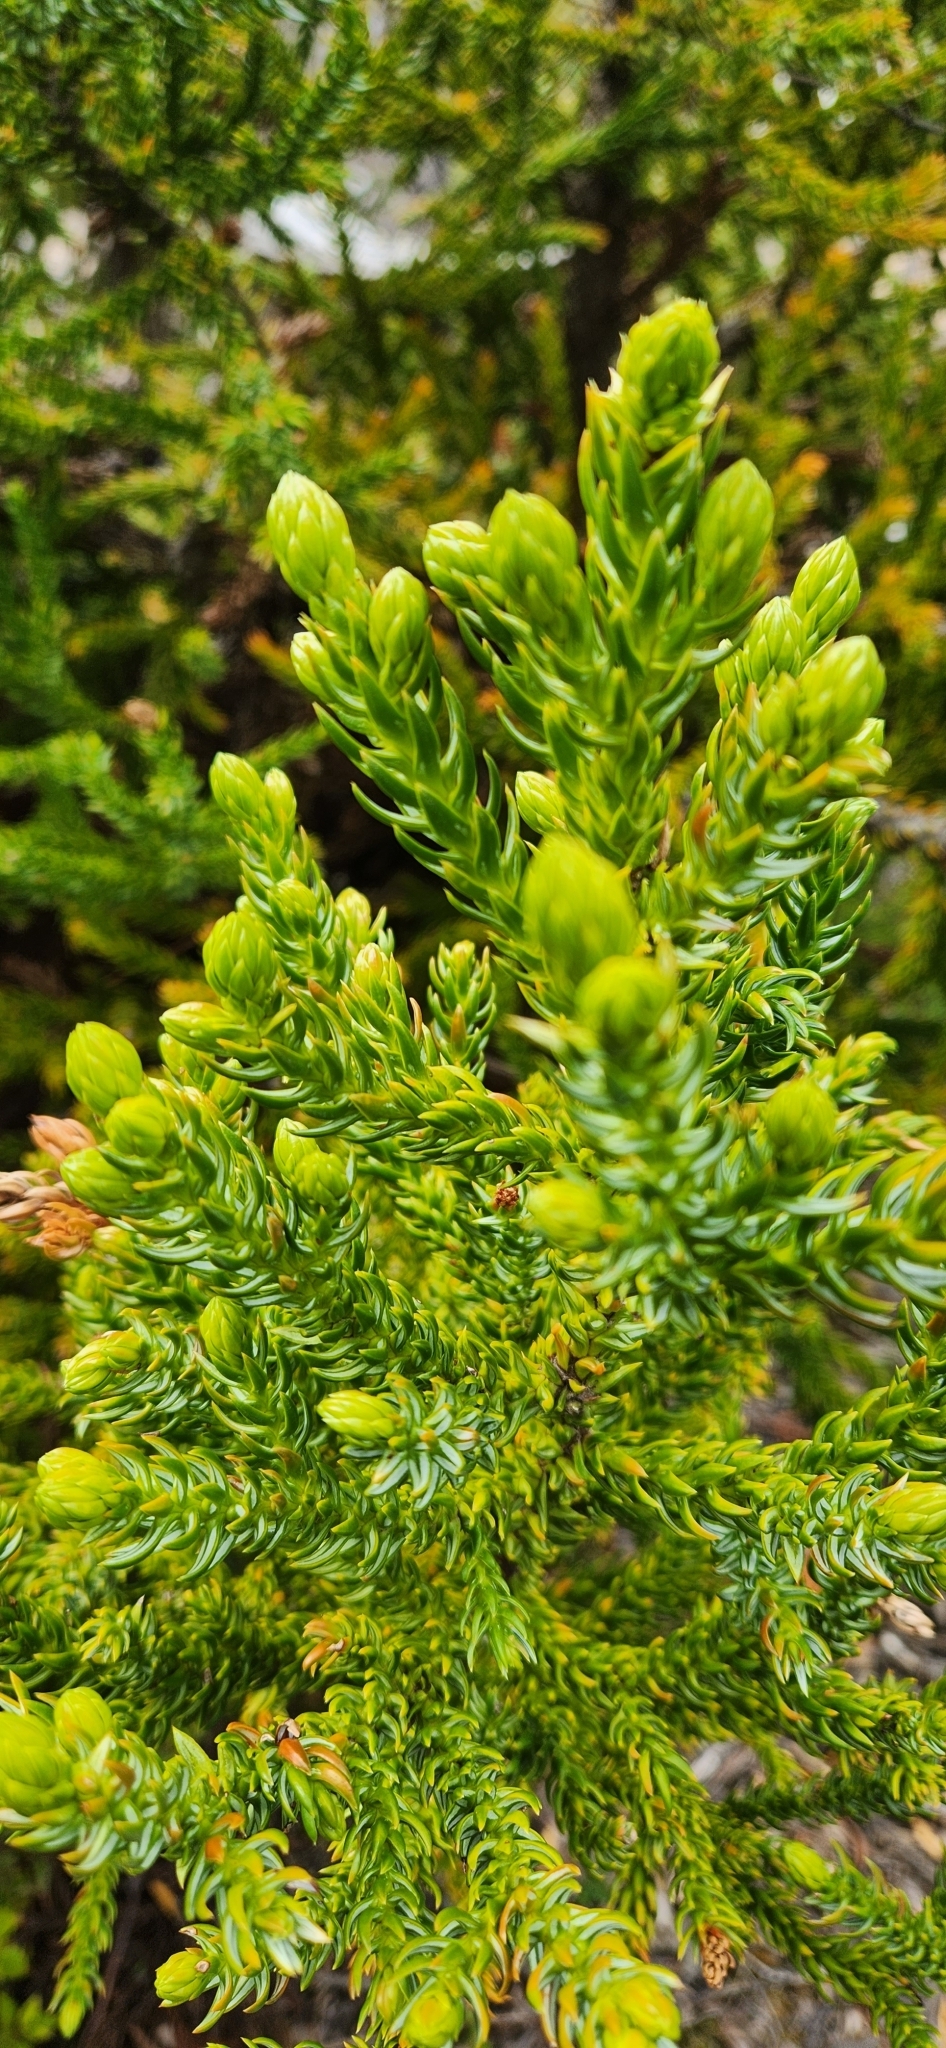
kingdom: Plantae
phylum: Tracheophyta
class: Pinopsida
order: Pinales
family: Cupressaceae
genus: Athrotaxis
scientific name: Athrotaxis selaginoides
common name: King william pine
